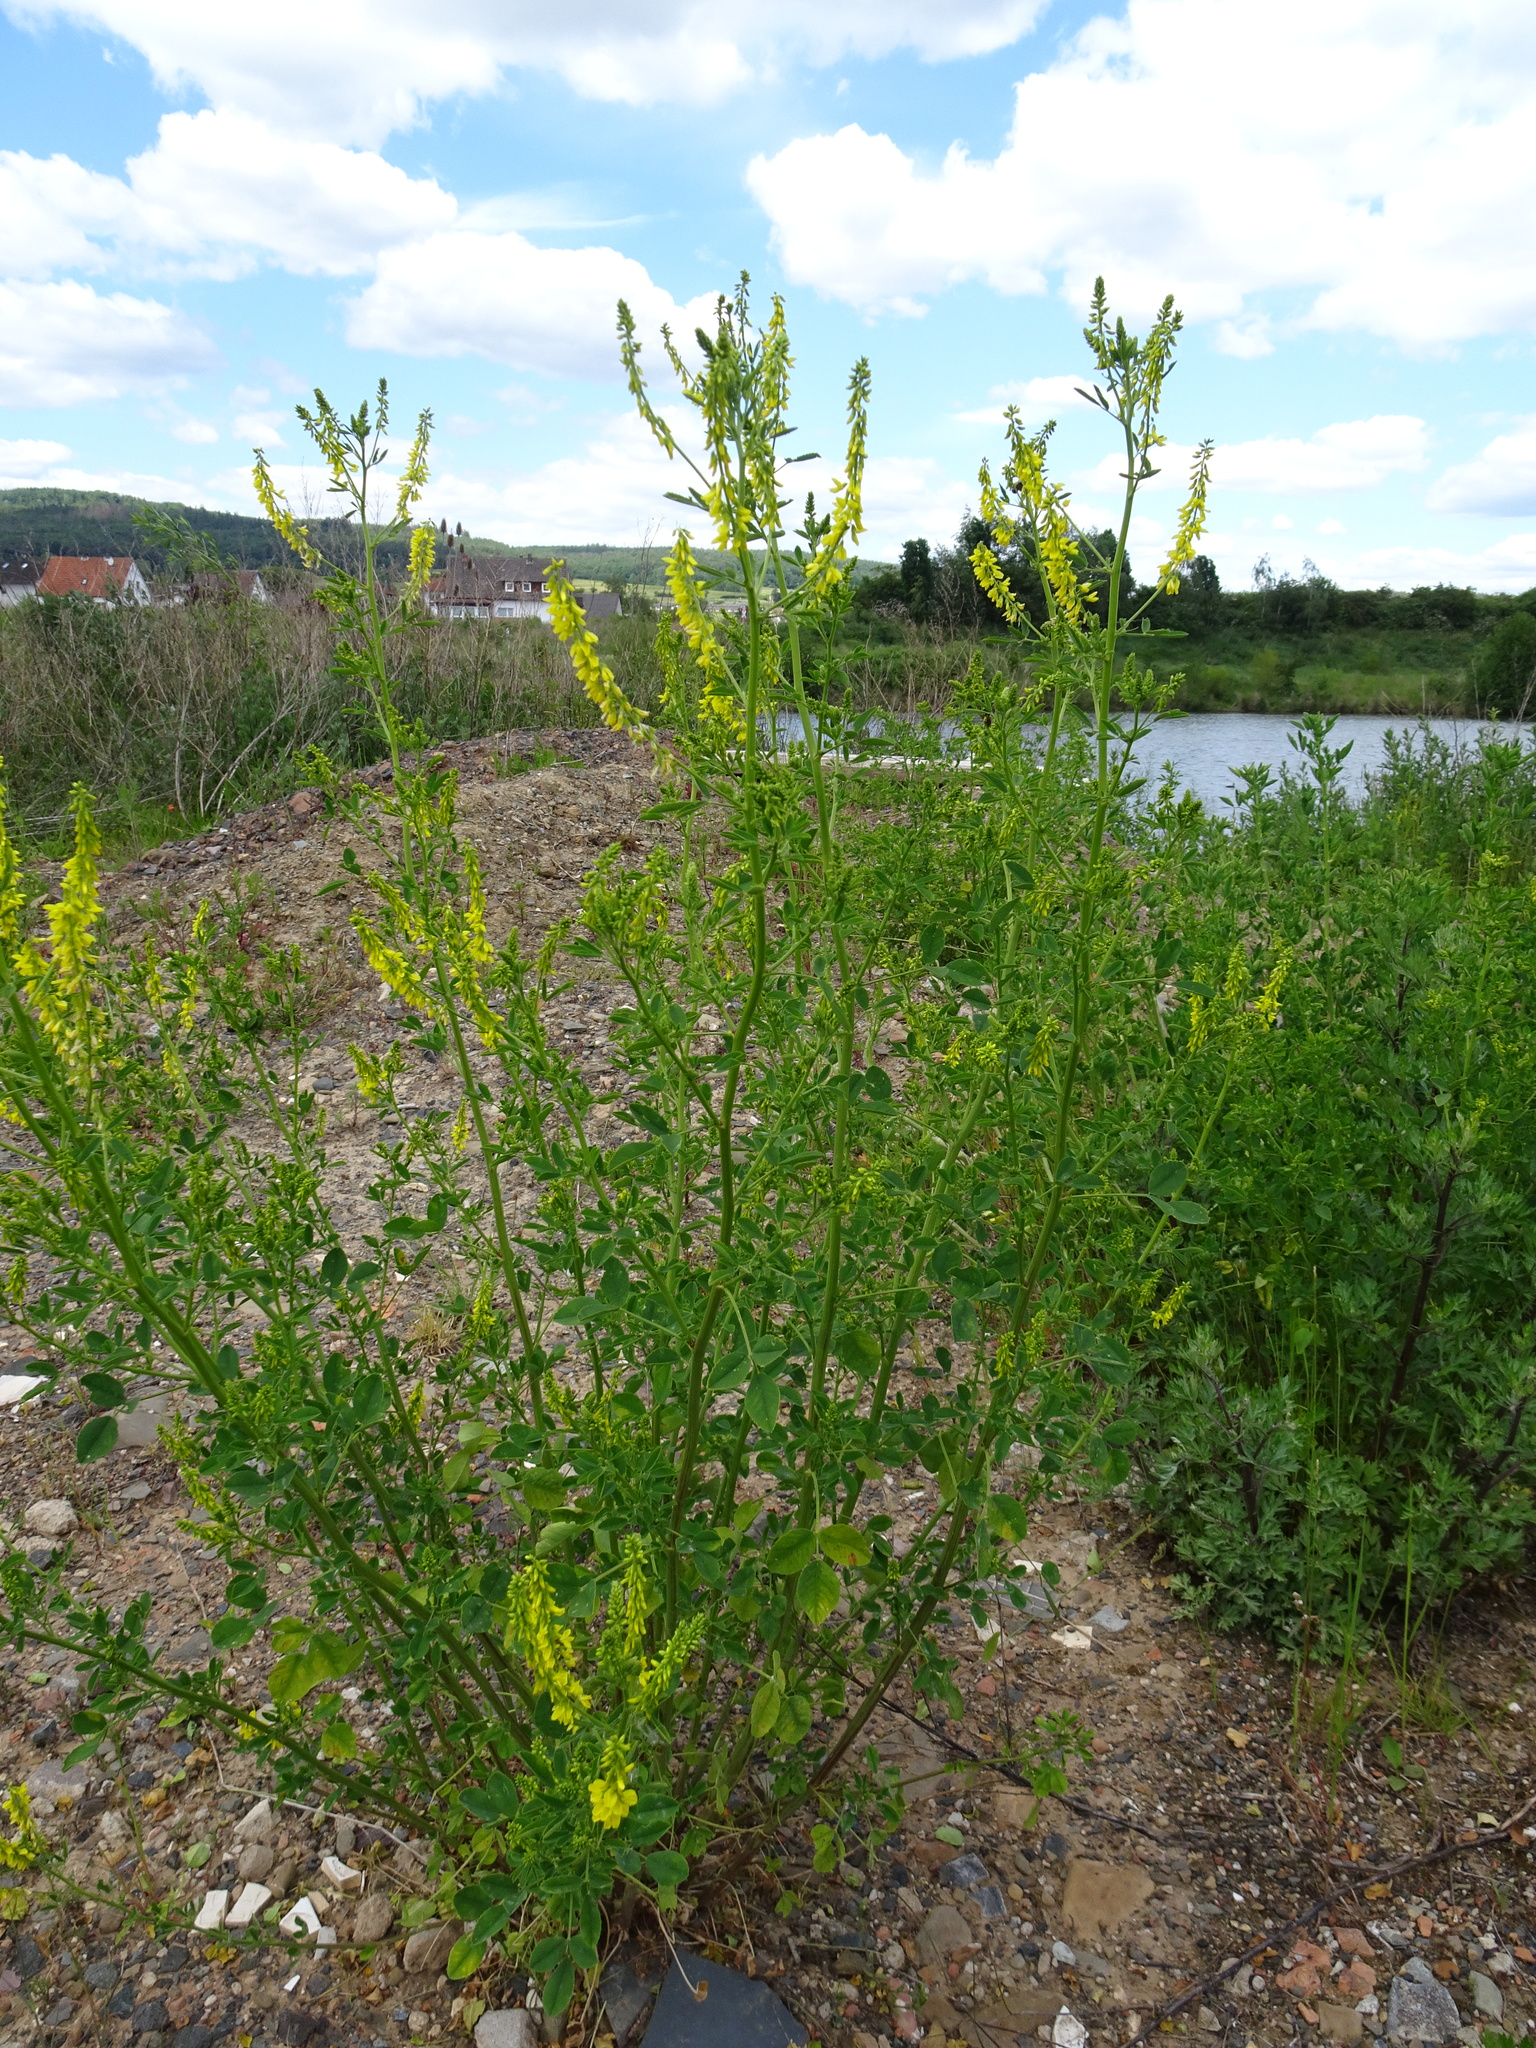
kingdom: Plantae
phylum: Tracheophyta
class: Magnoliopsida
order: Fabales
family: Fabaceae
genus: Melilotus
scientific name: Melilotus officinalis
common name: Sweetclover
